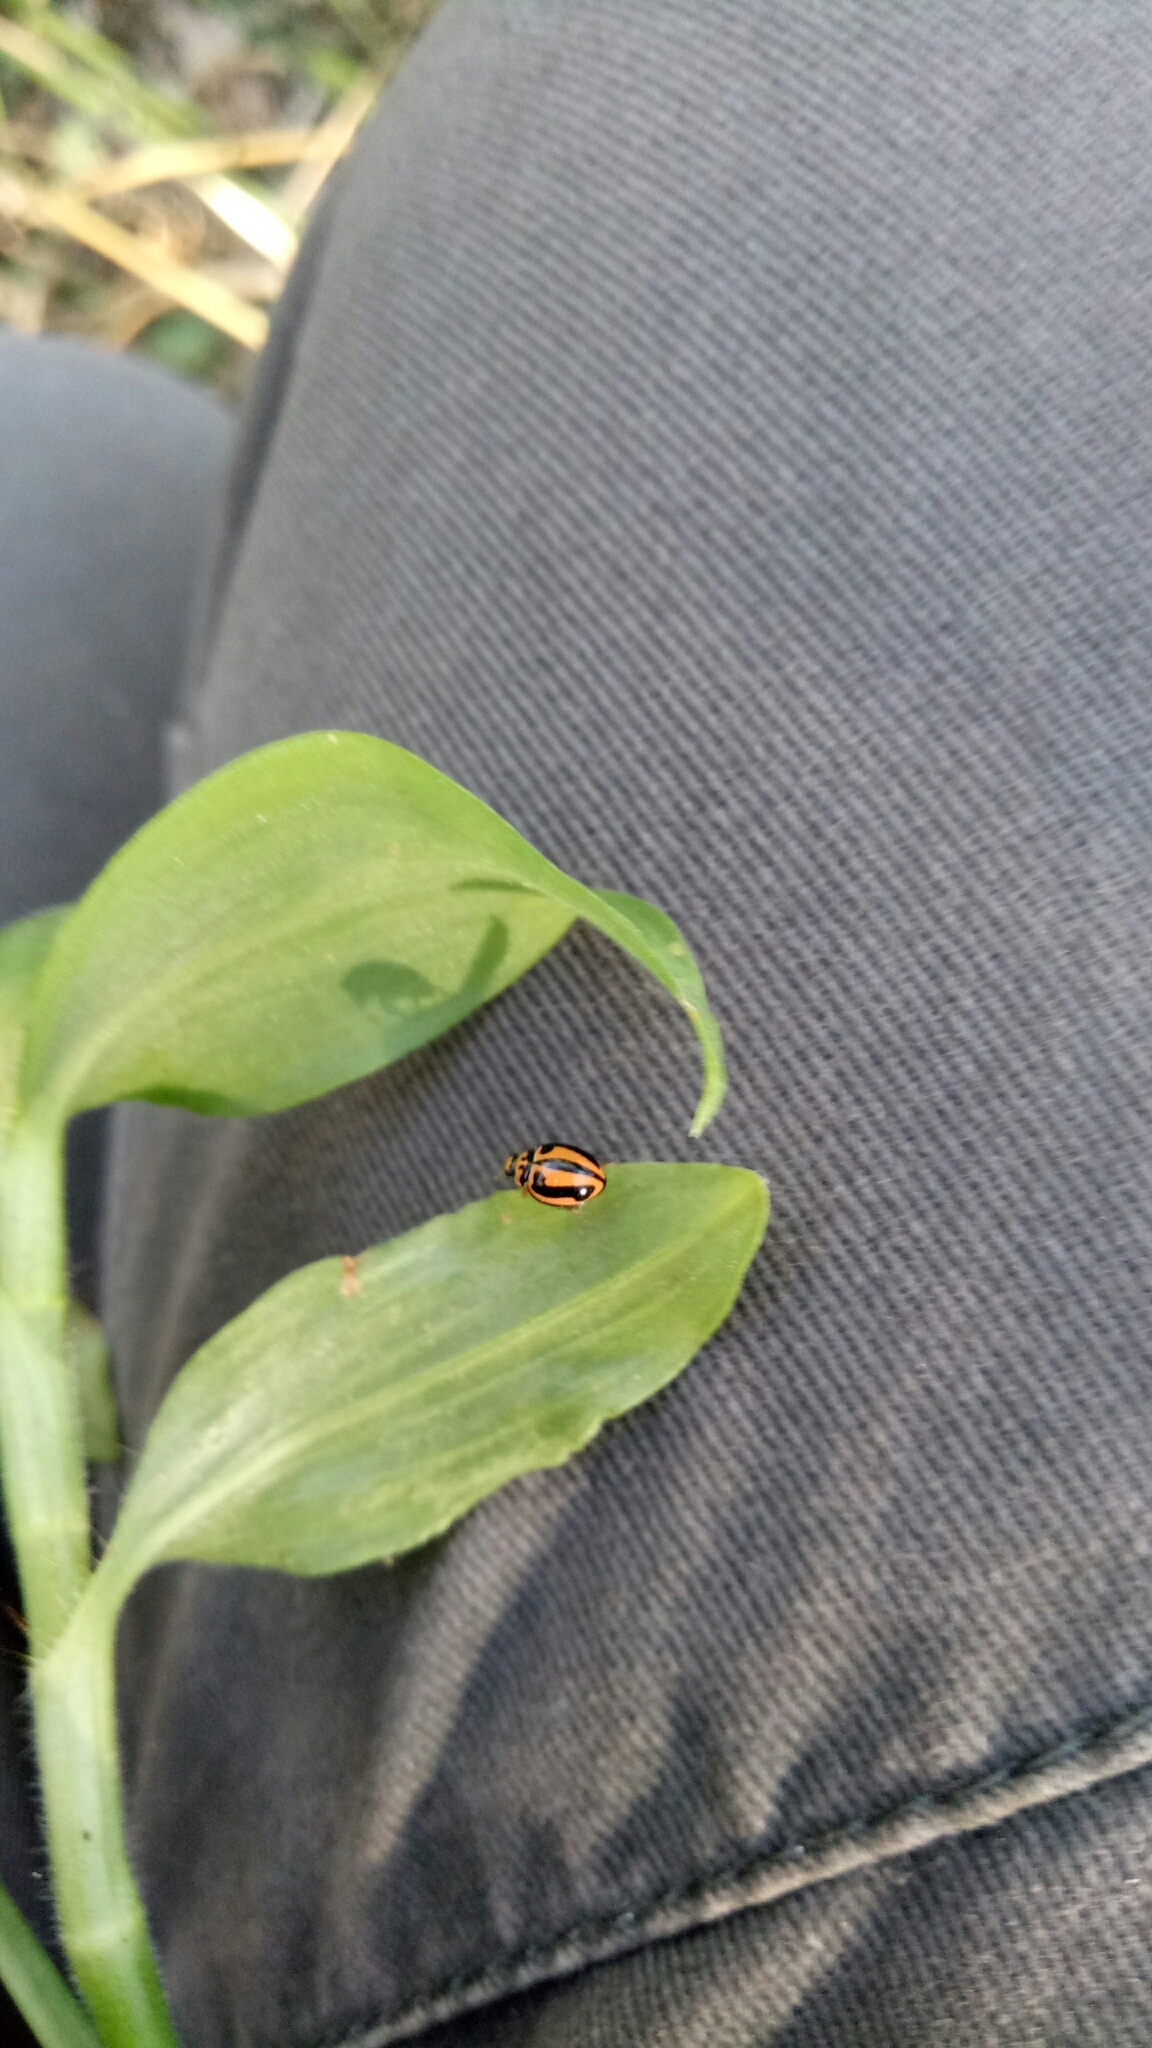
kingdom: Animalia
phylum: Arthropoda
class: Insecta
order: Coleoptera
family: Coccinellidae
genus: Micraspis
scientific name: Micraspis frenata
